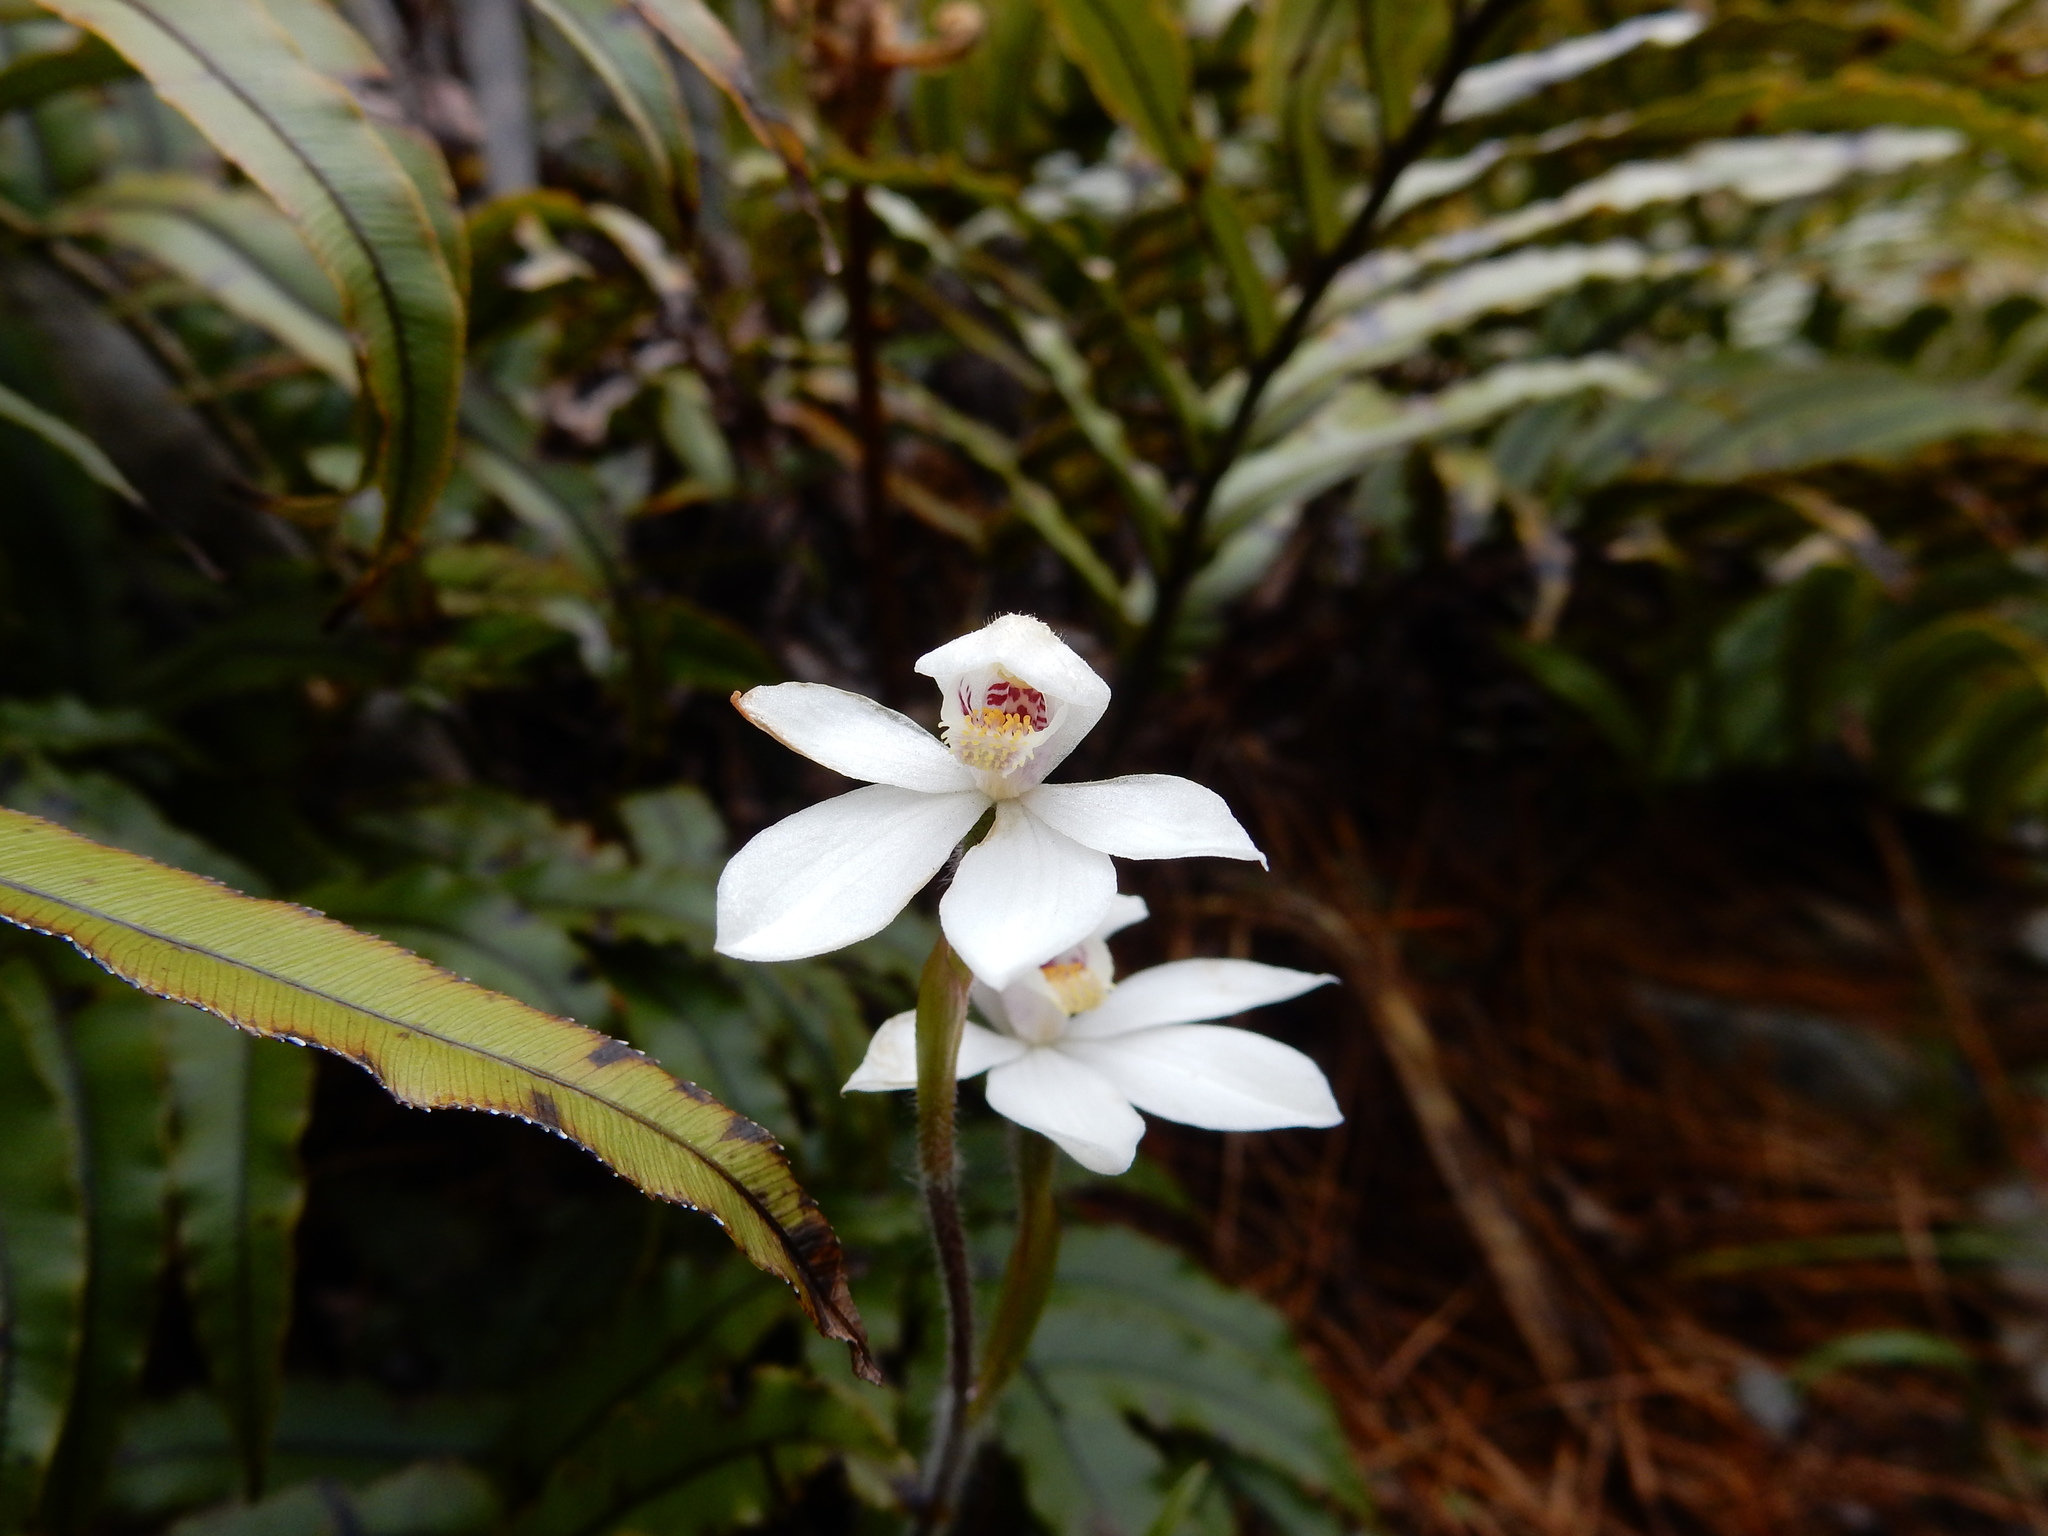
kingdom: Plantae
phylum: Tracheophyta
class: Liliopsida
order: Asparagales
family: Orchidaceae
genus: Caladenia
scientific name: Caladenia lyallii
